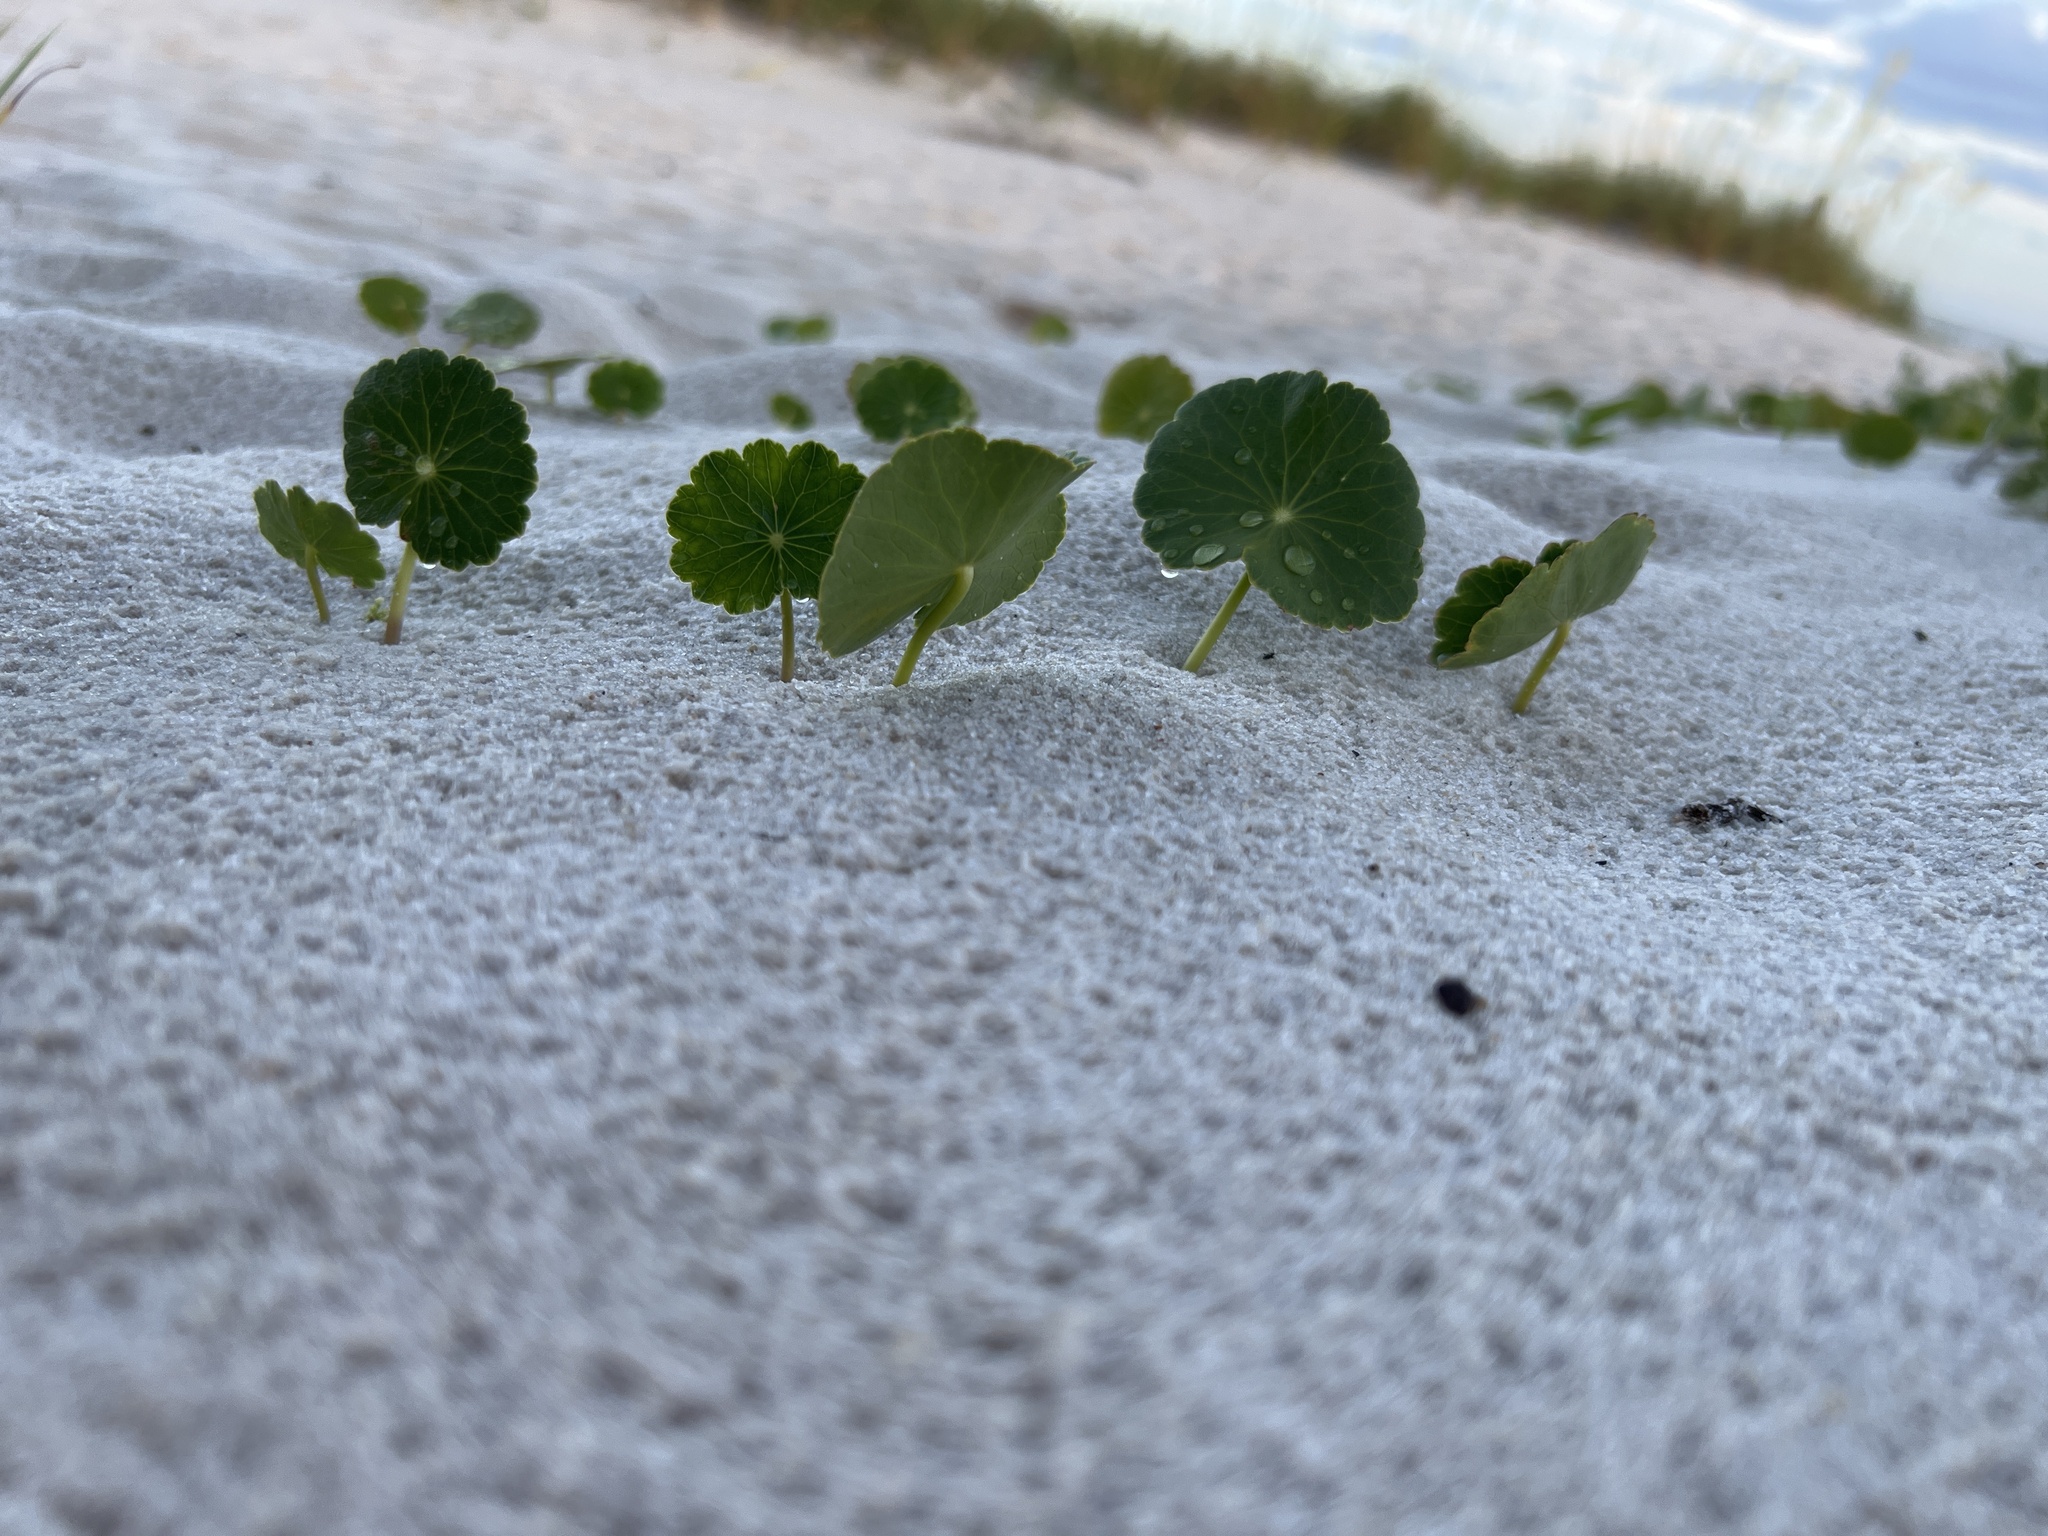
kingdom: Plantae
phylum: Tracheophyta
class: Magnoliopsida
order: Apiales
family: Araliaceae
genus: Hydrocotyle
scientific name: Hydrocotyle bonariensis
